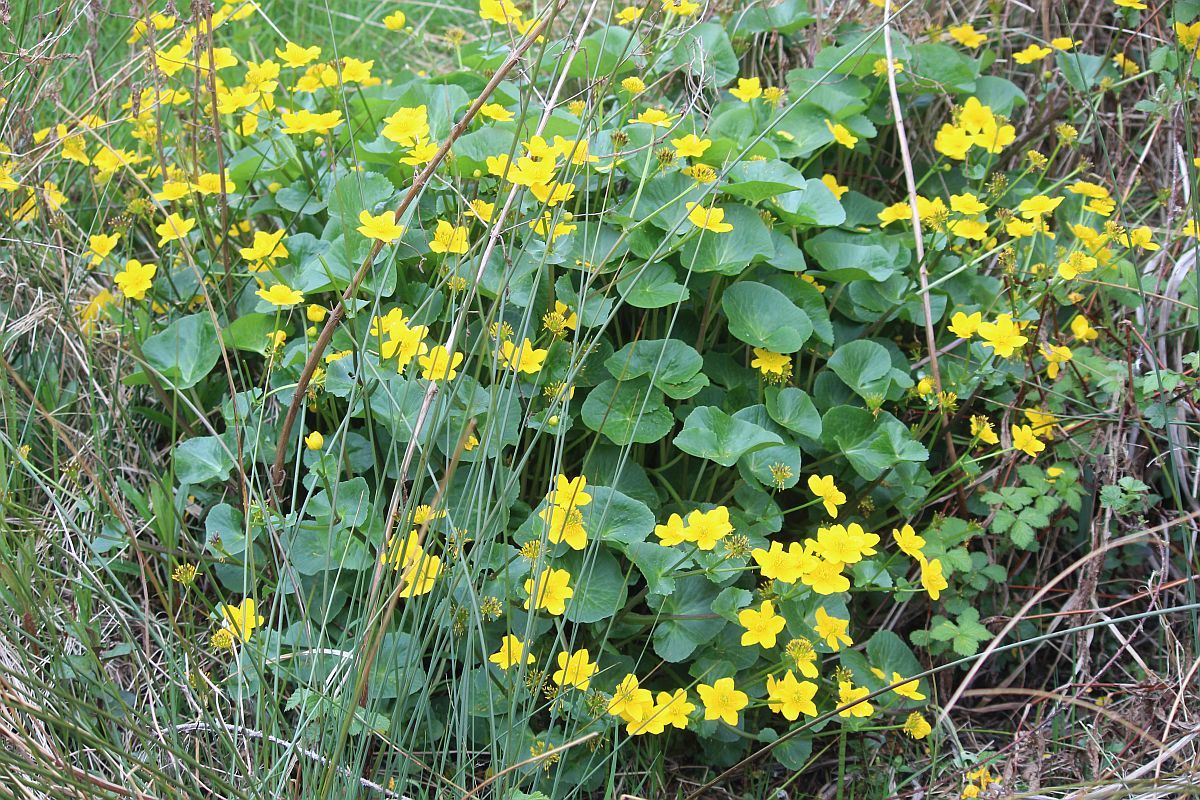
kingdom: Plantae
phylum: Tracheophyta
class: Magnoliopsida
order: Ranunculales
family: Ranunculaceae
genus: Caltha
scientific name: Caltha palustris
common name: Marsh marigold
